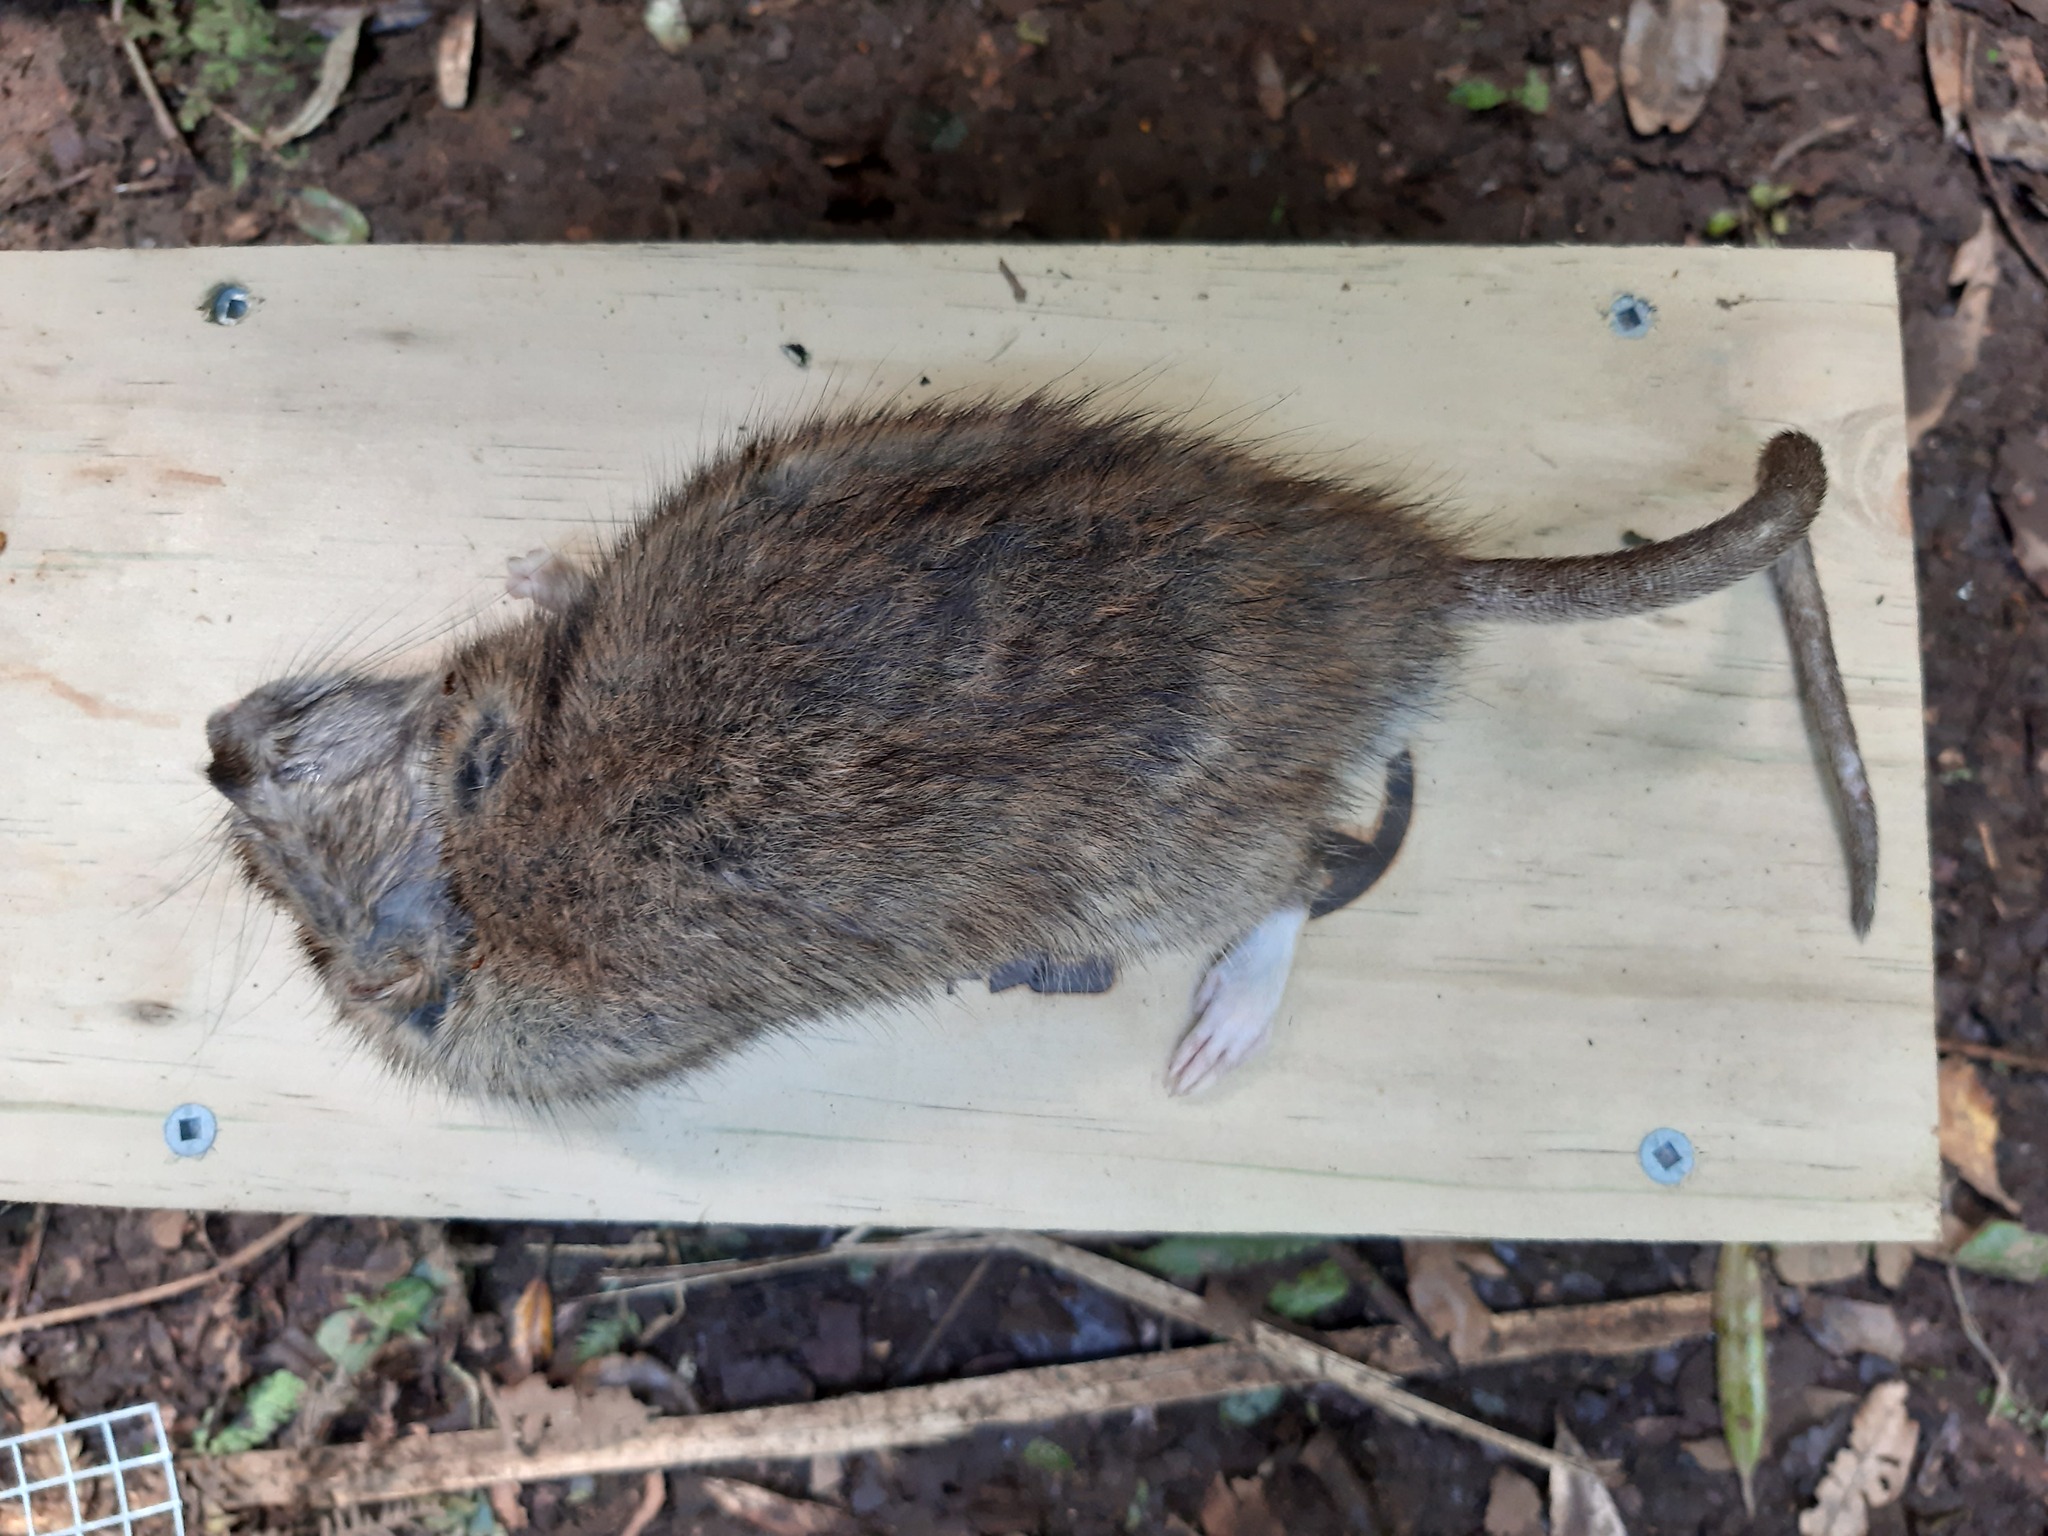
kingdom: Animalia
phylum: Chordata
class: Mammalia
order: Rodentia
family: Muridae
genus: Rattus
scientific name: Rattus norvegicus
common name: Brown rat
